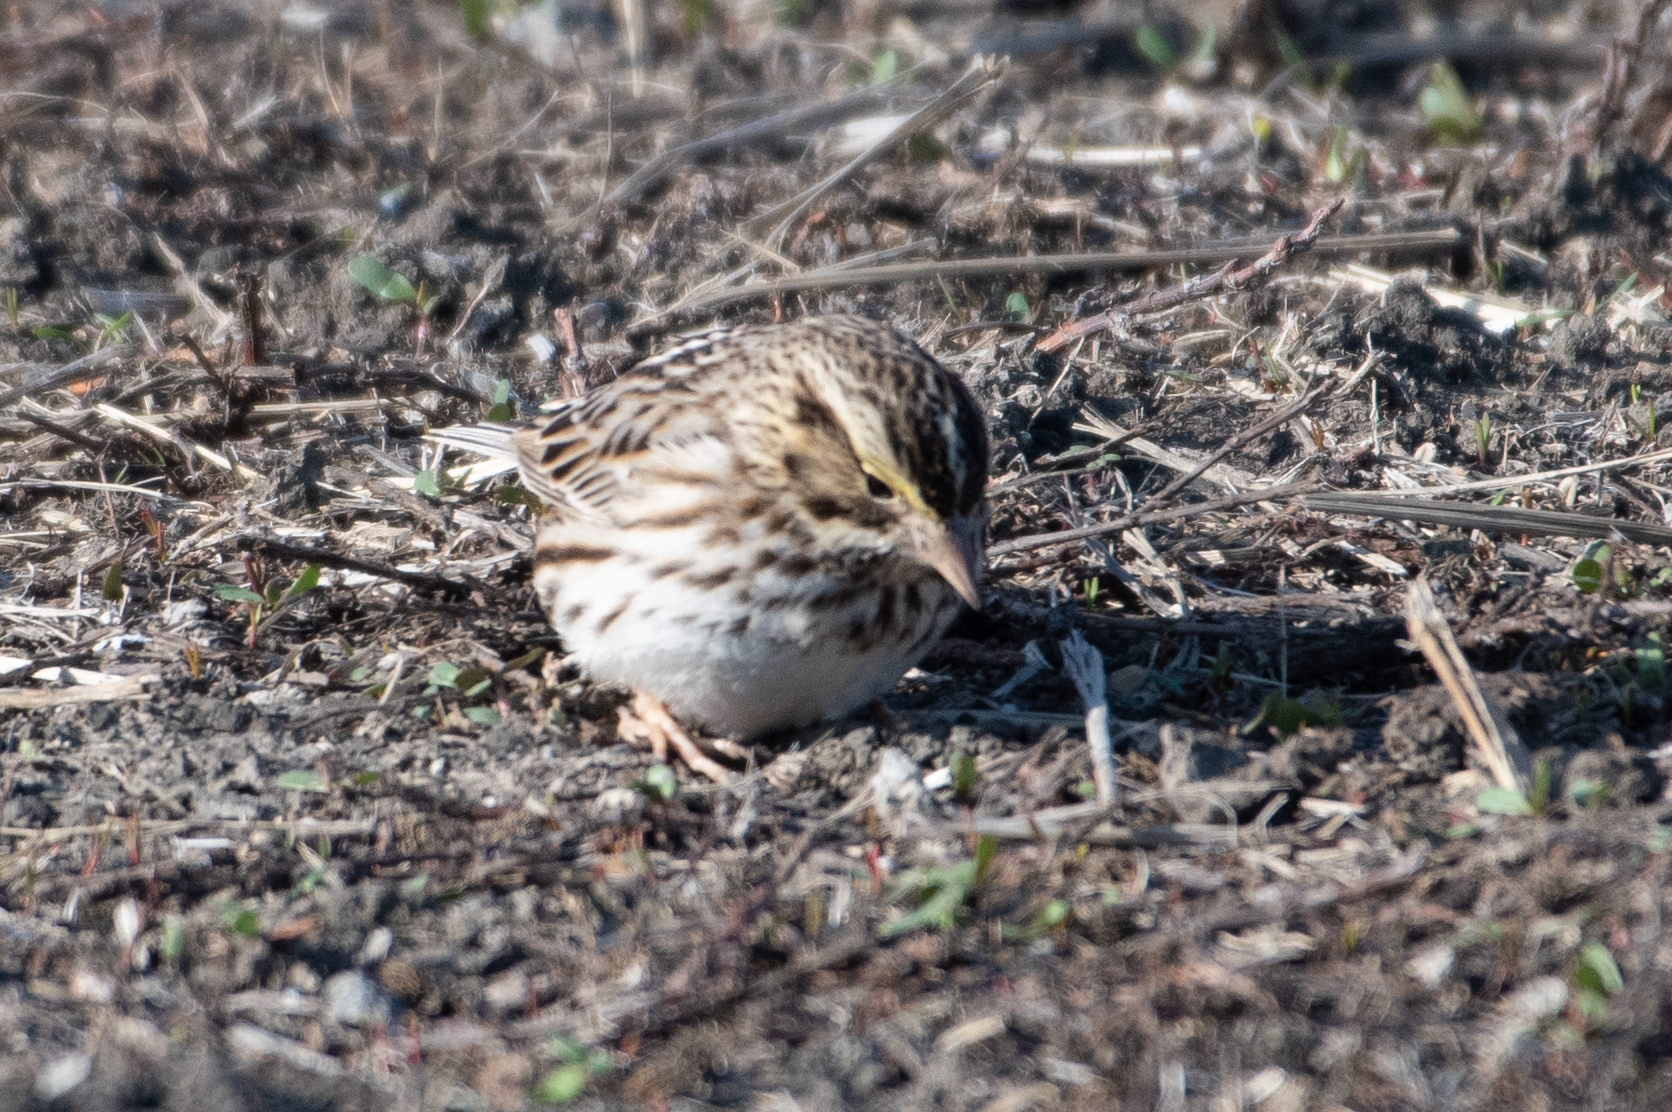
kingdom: Animalia
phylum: Chordata
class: Aves
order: Passeriformes
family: Passerellidae
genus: Passerculus
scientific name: Passerculus sandwichensis
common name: Savannah sparrow
